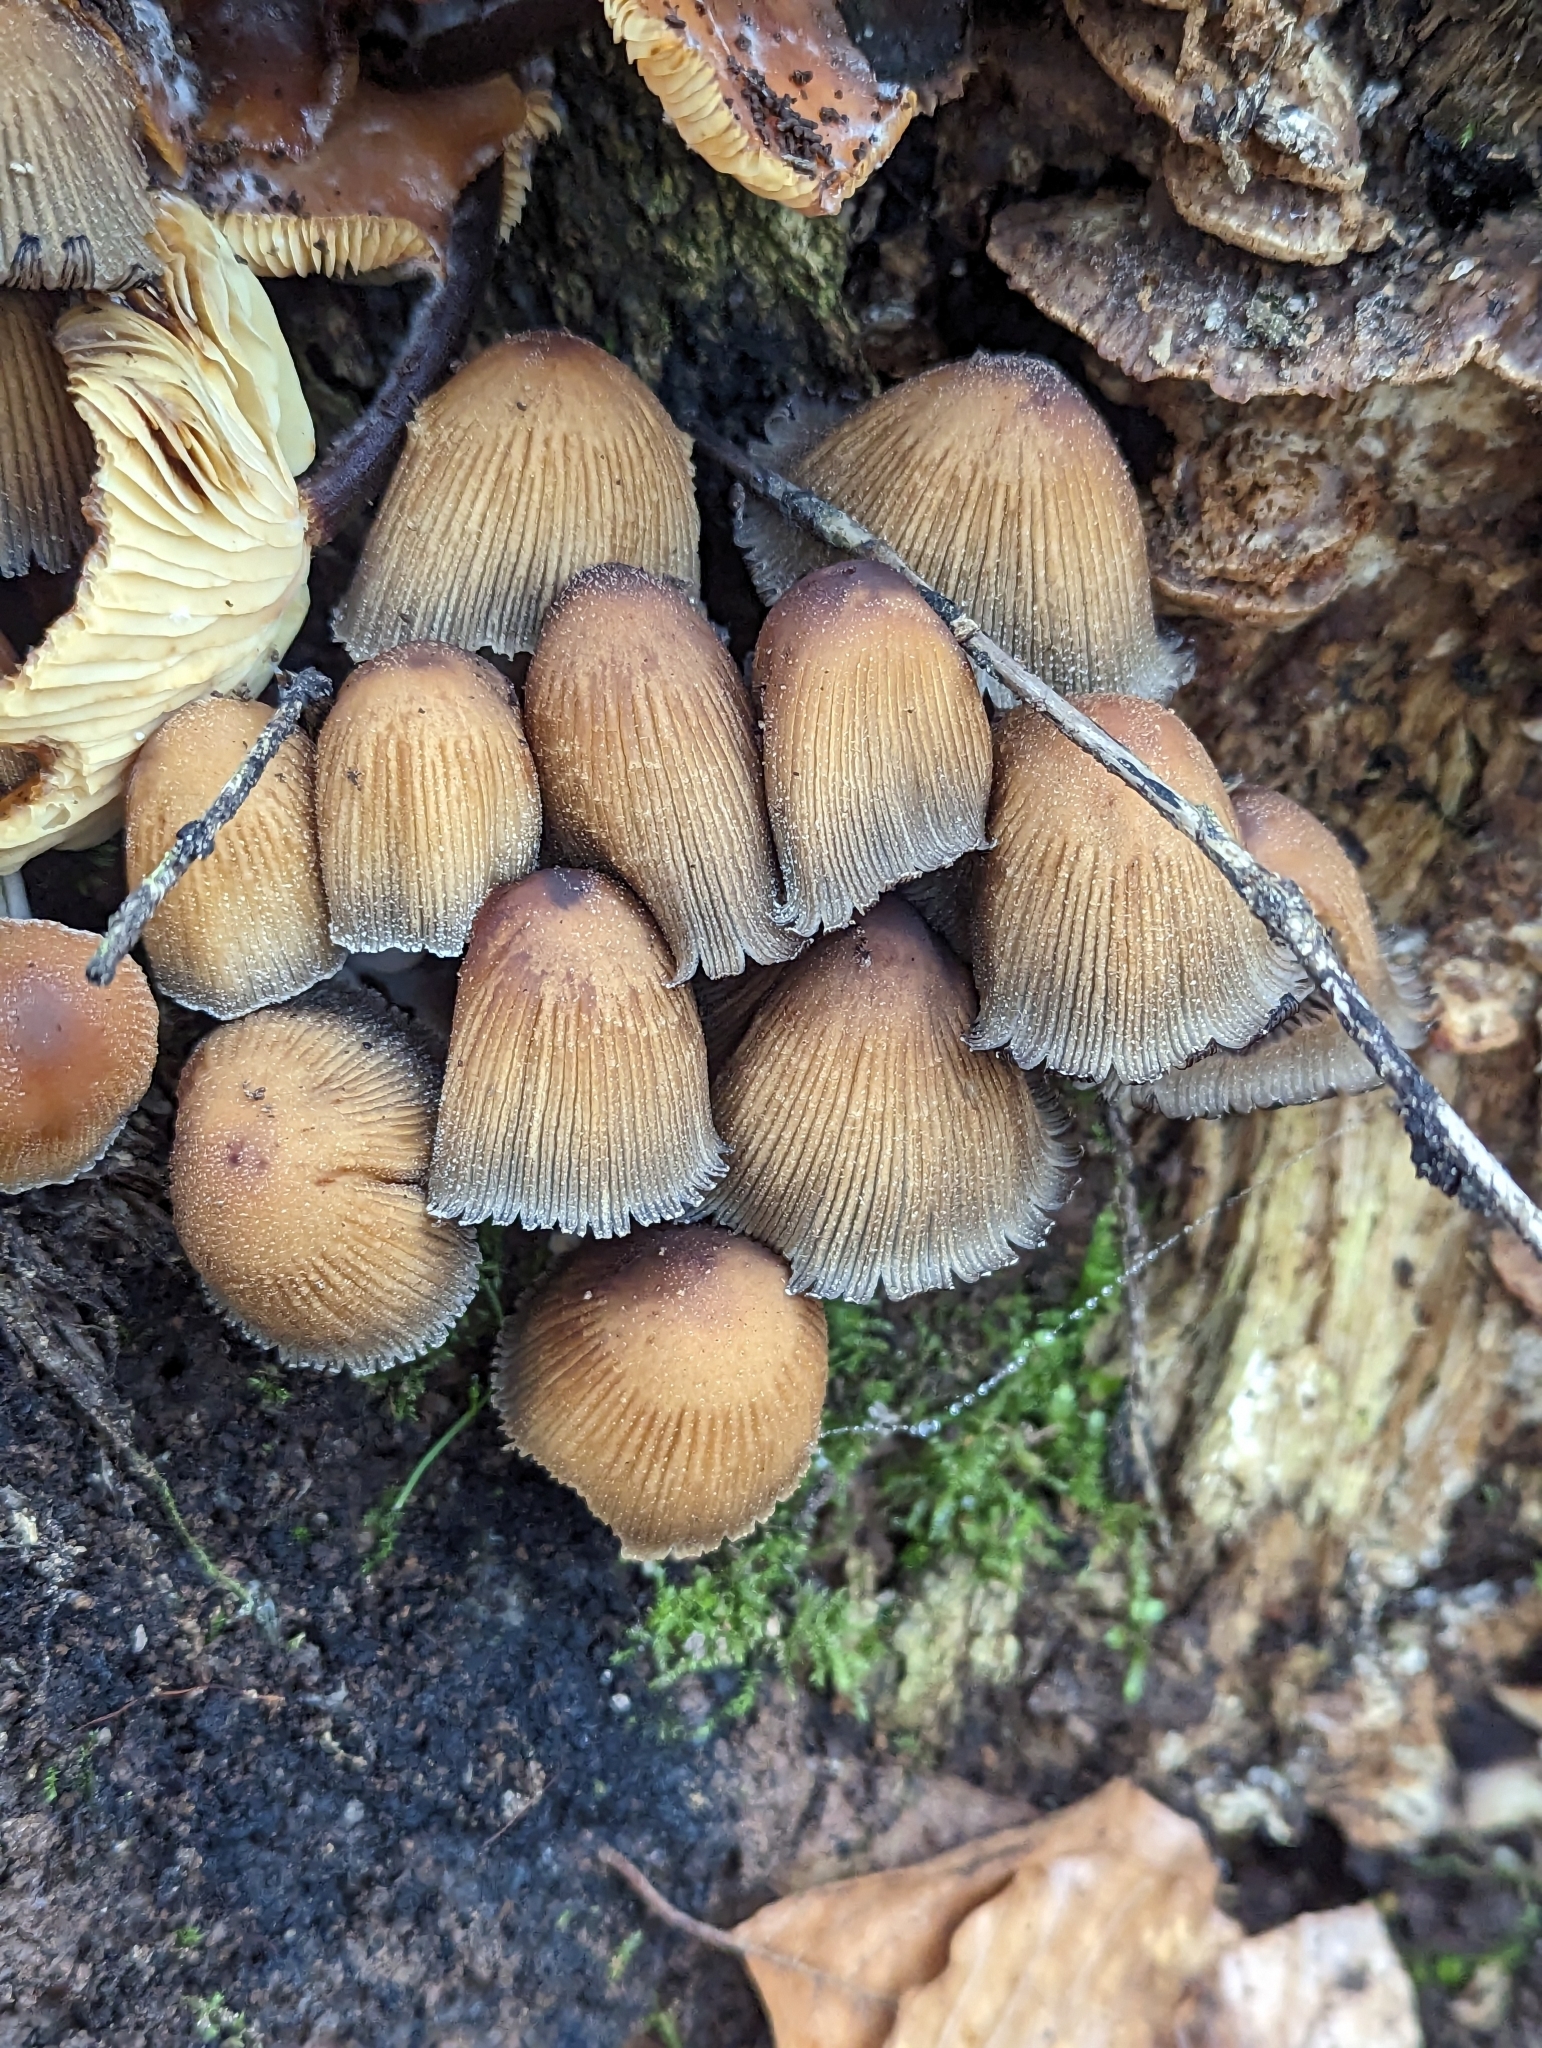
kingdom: Fungi
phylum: Basidiomycota
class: Agaricomycetes
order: Agaricales
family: Psathyrellaceae
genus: Coprinellus
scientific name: Coprinellus micaceus
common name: Glistening ink-cap
